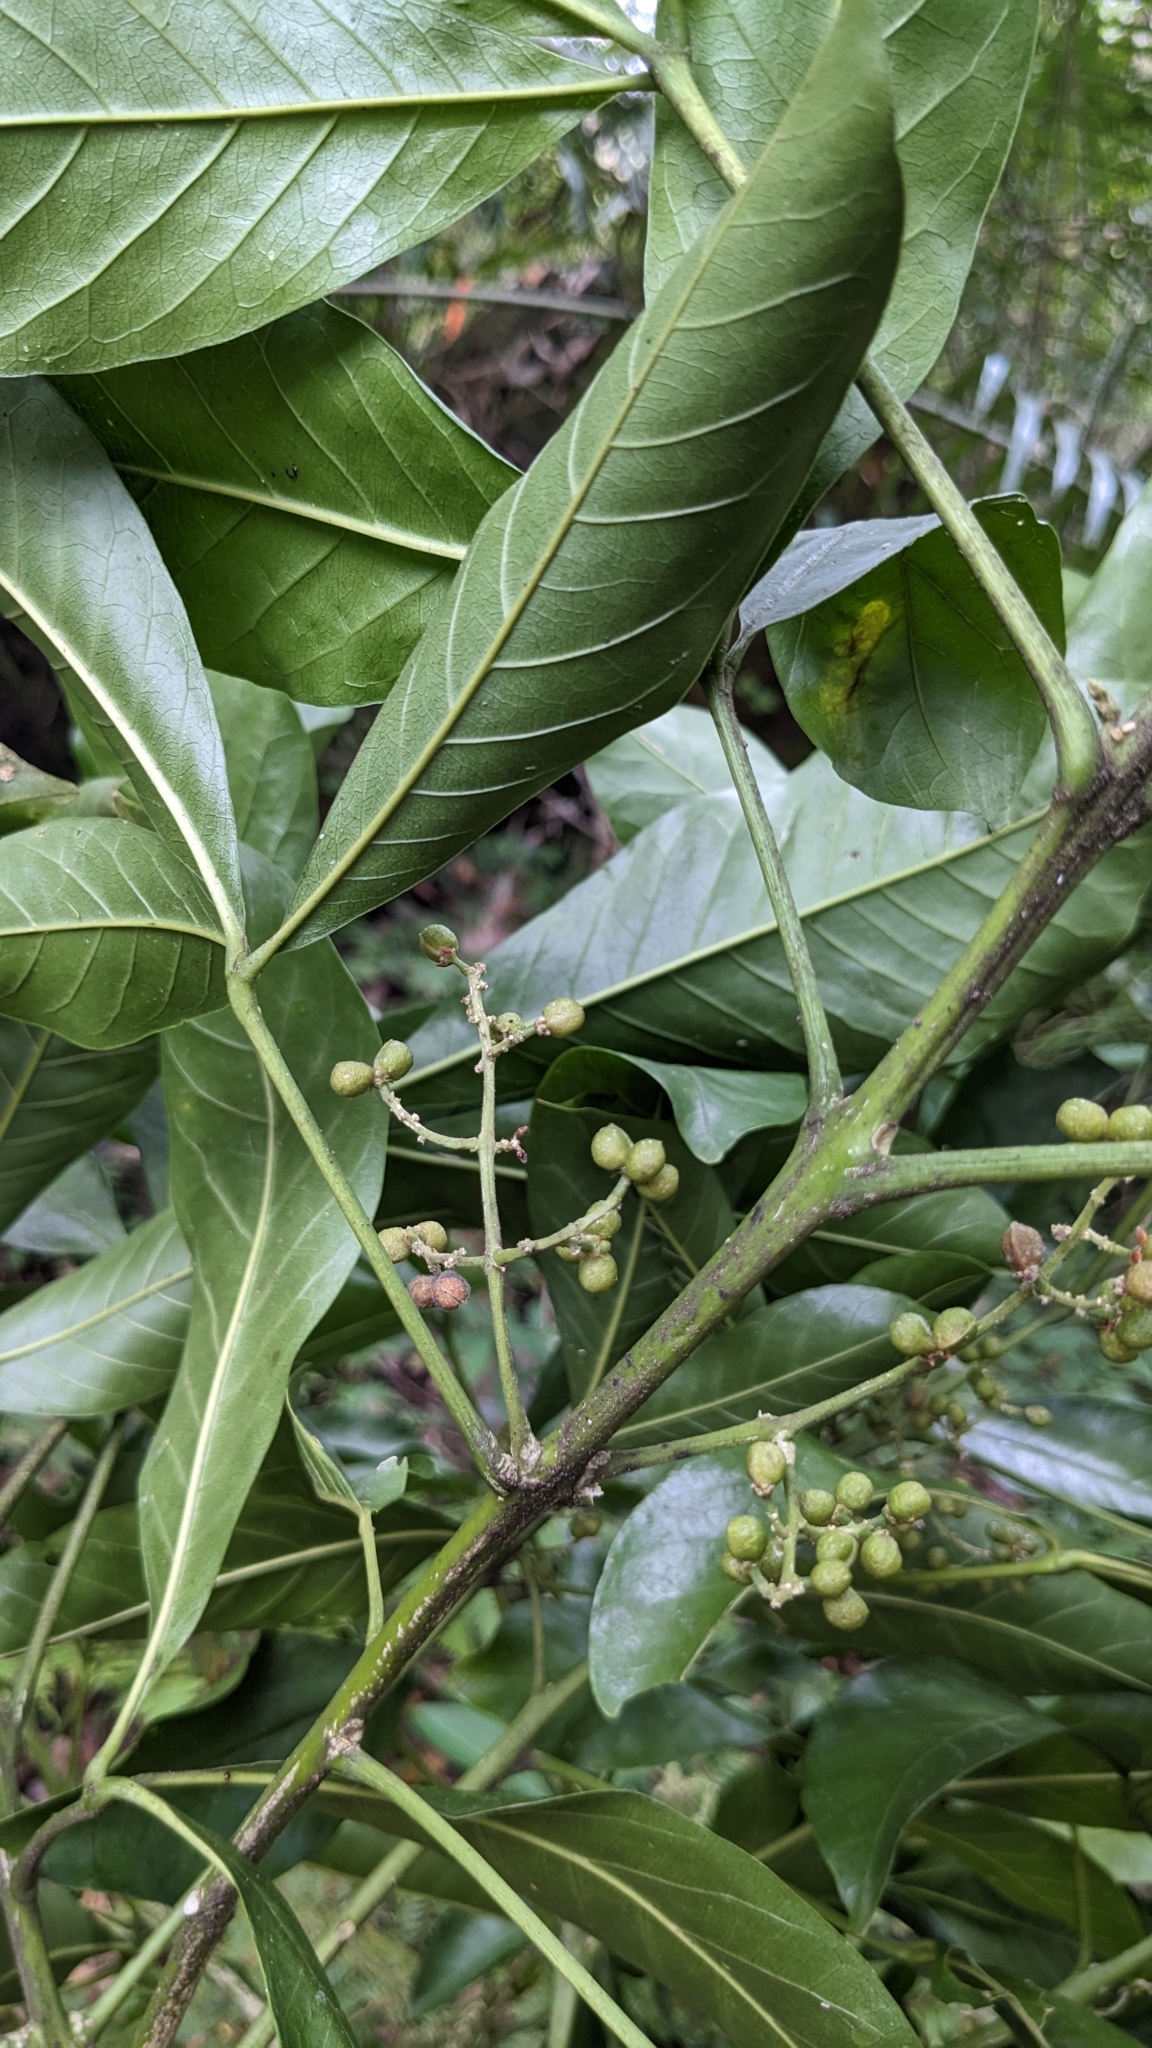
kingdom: Plantae
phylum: Tracheophyta
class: Magnoliopsida
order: Sapindales
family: Rutaceae
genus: Melicope
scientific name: Melicope semecarpifolia
